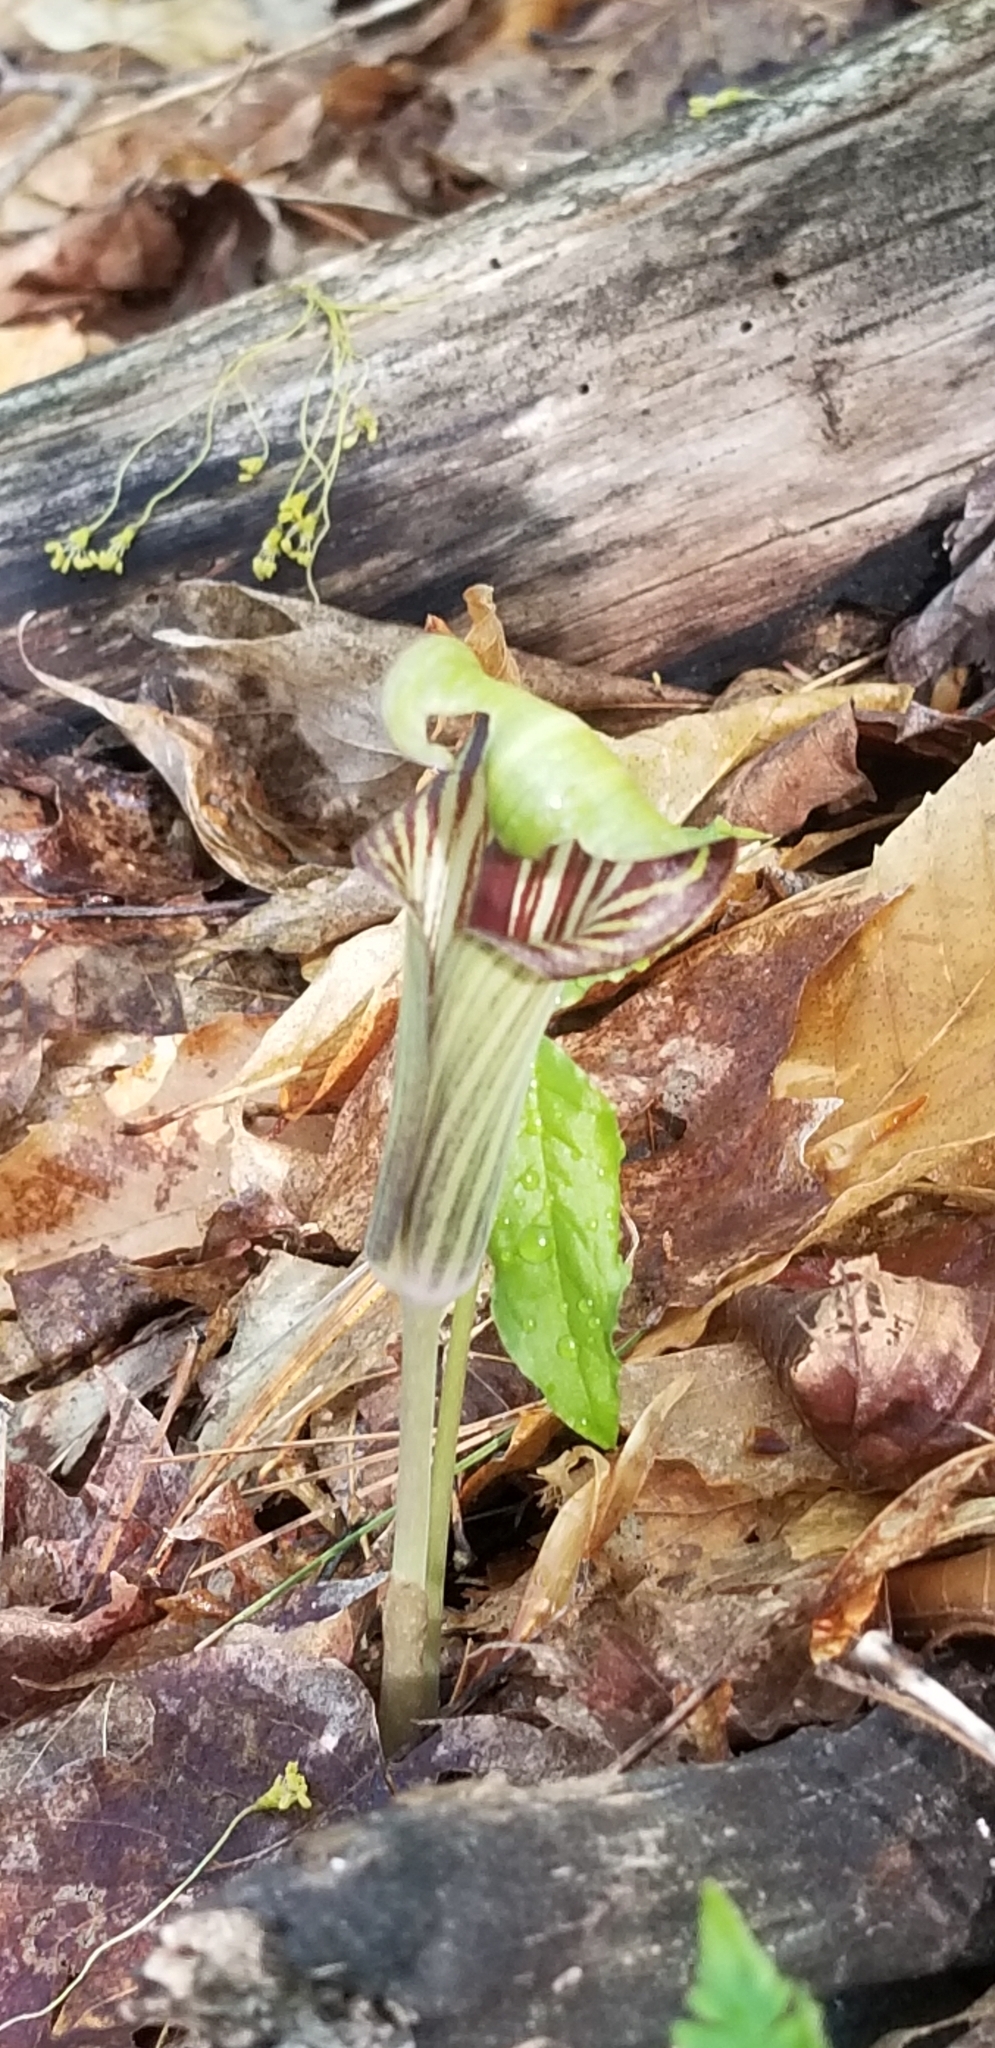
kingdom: Plantae
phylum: Tracheophyta
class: Liliopsida
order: Alismatales
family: Araceae
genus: Arisaema
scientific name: Arisaema triphyllum
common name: Jack-in-the-pulpit
